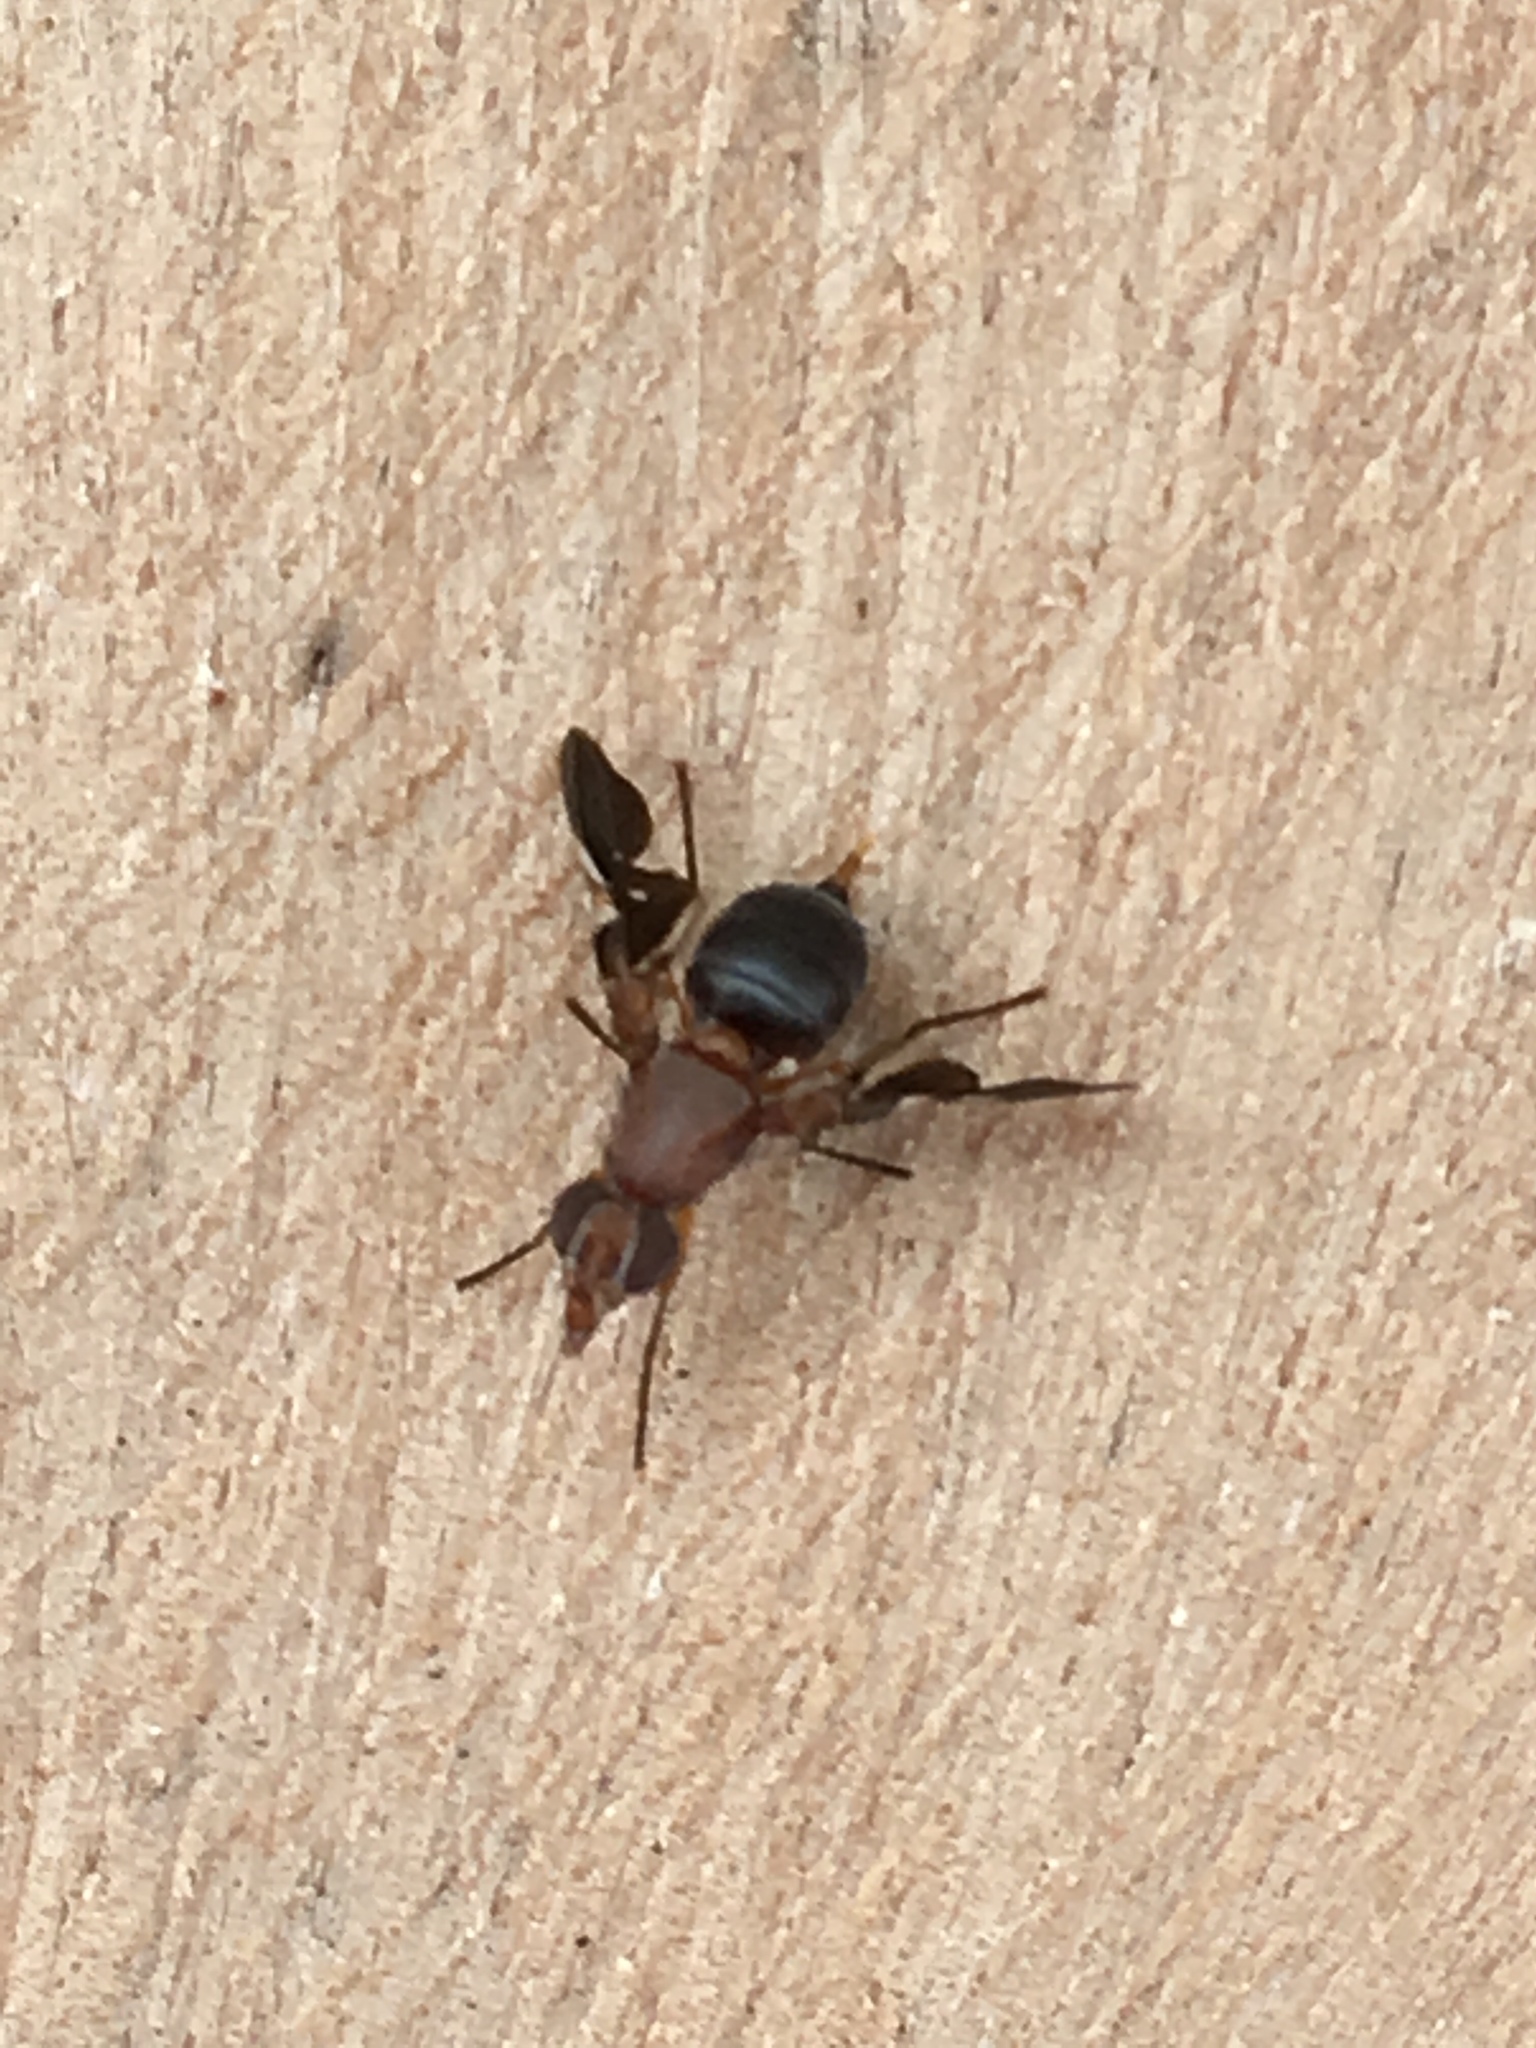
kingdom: Animalia
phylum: Arthropoda
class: Insecta
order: Diptera
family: Ulidiidae
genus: Delphinia
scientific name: Delphinia picta
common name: Common picture-winged fly
